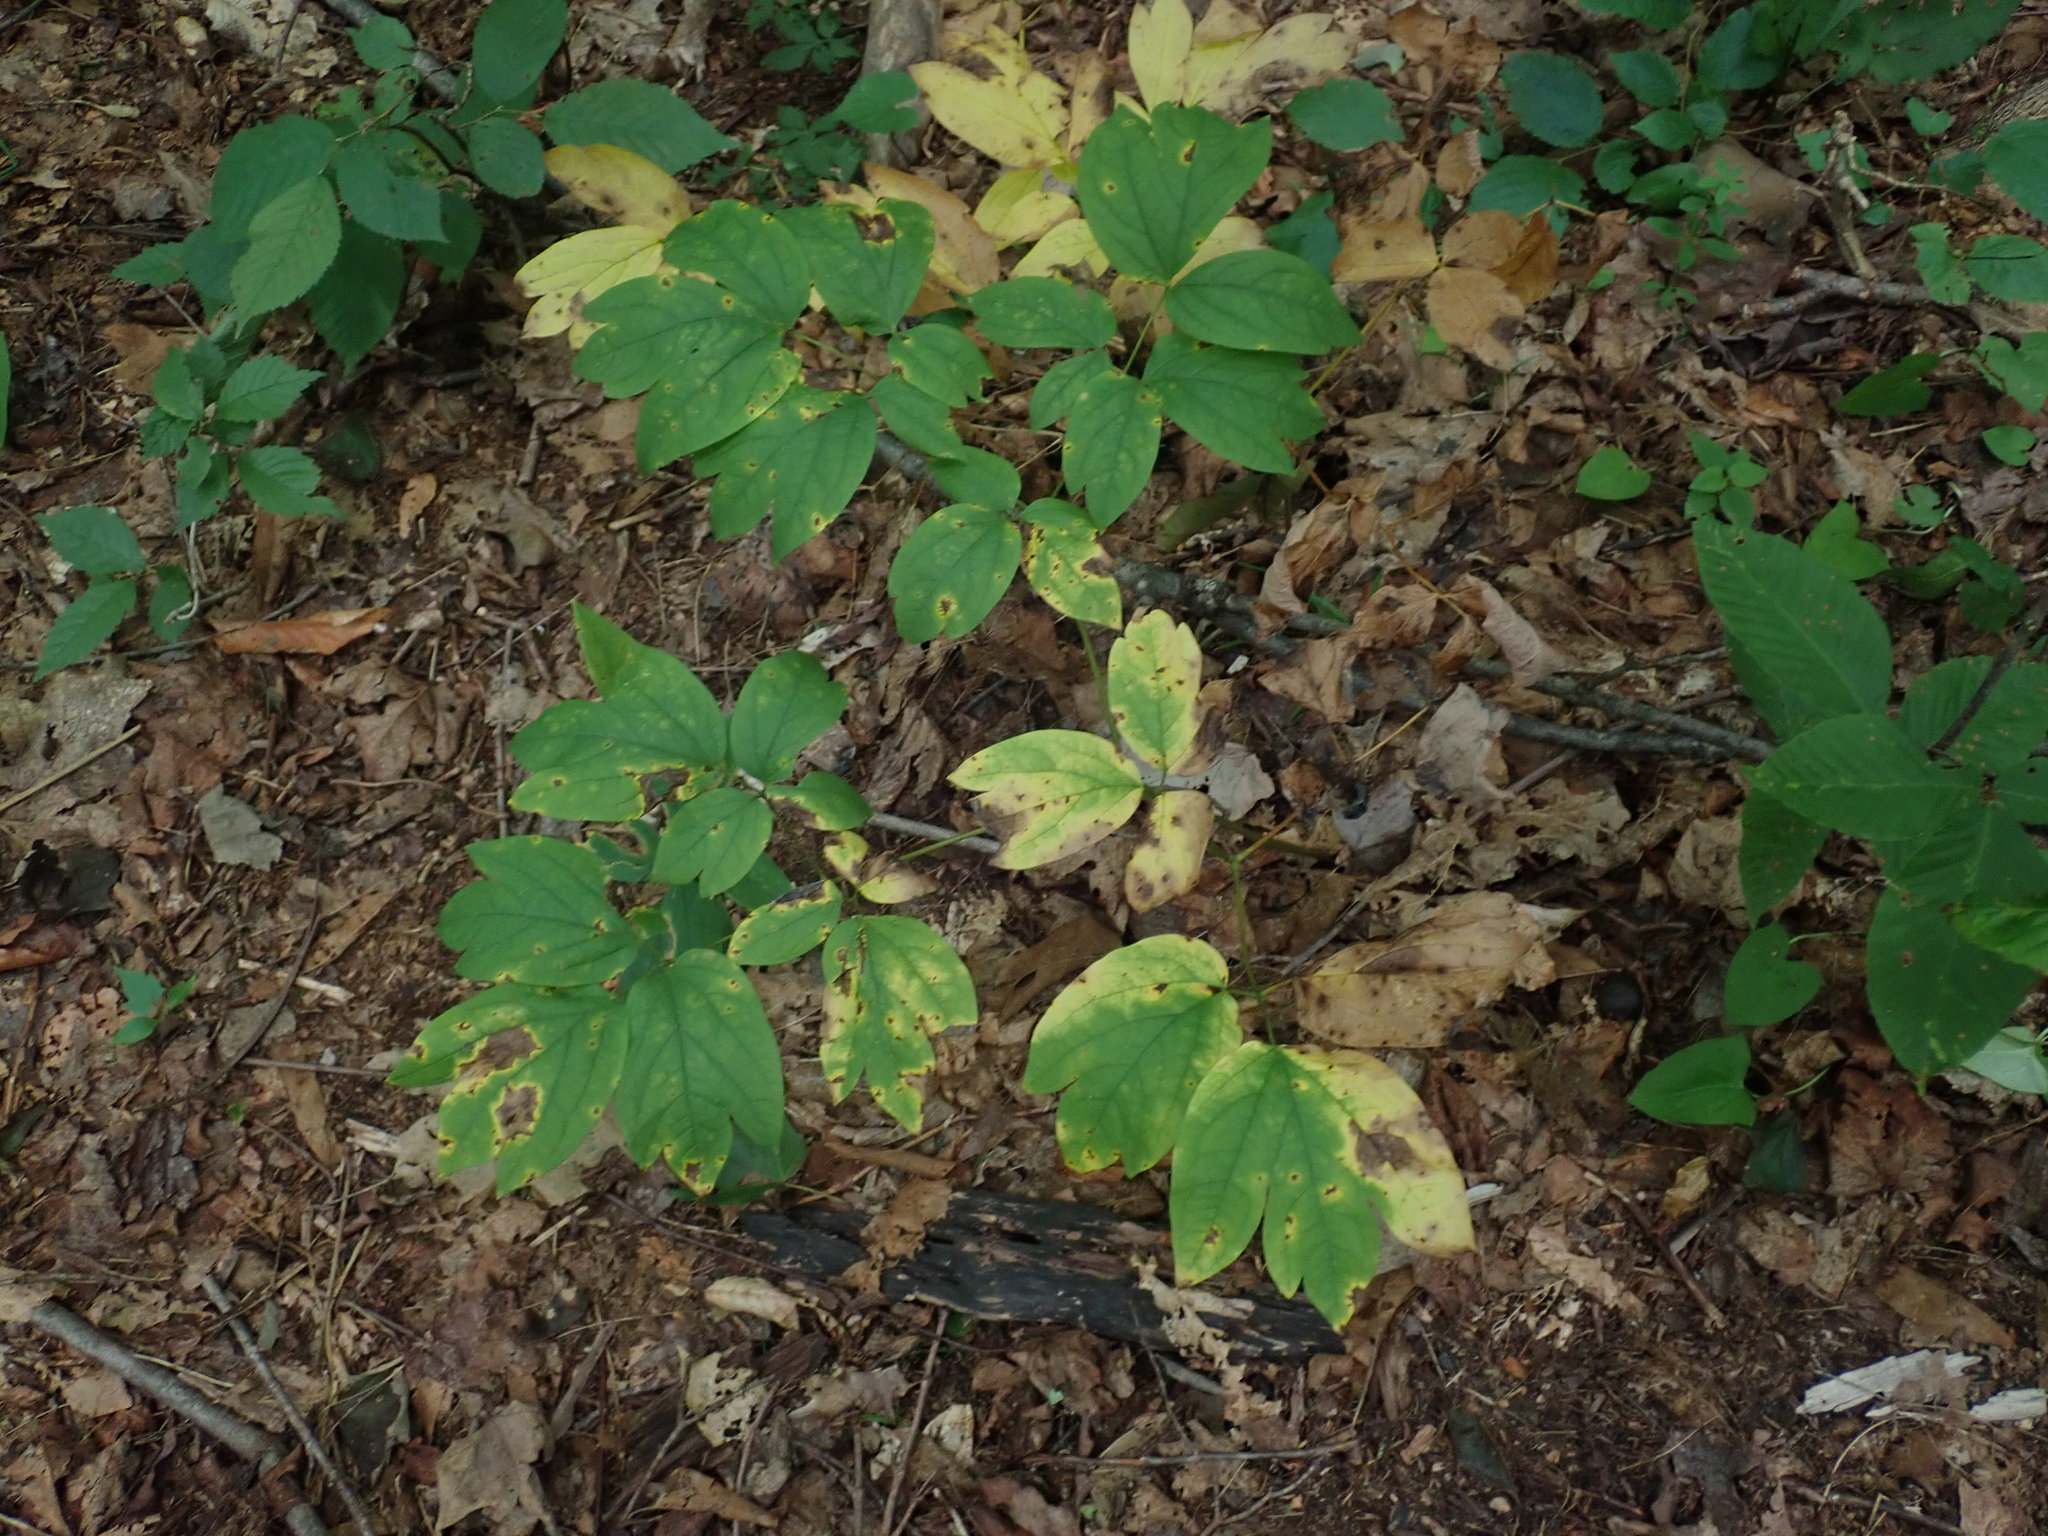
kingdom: Plantae
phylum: Tracheophyta
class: Magnoliopsida
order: Ranunculales
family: Berberidaceae
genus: Caulophyllum
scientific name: Caulophyllum
